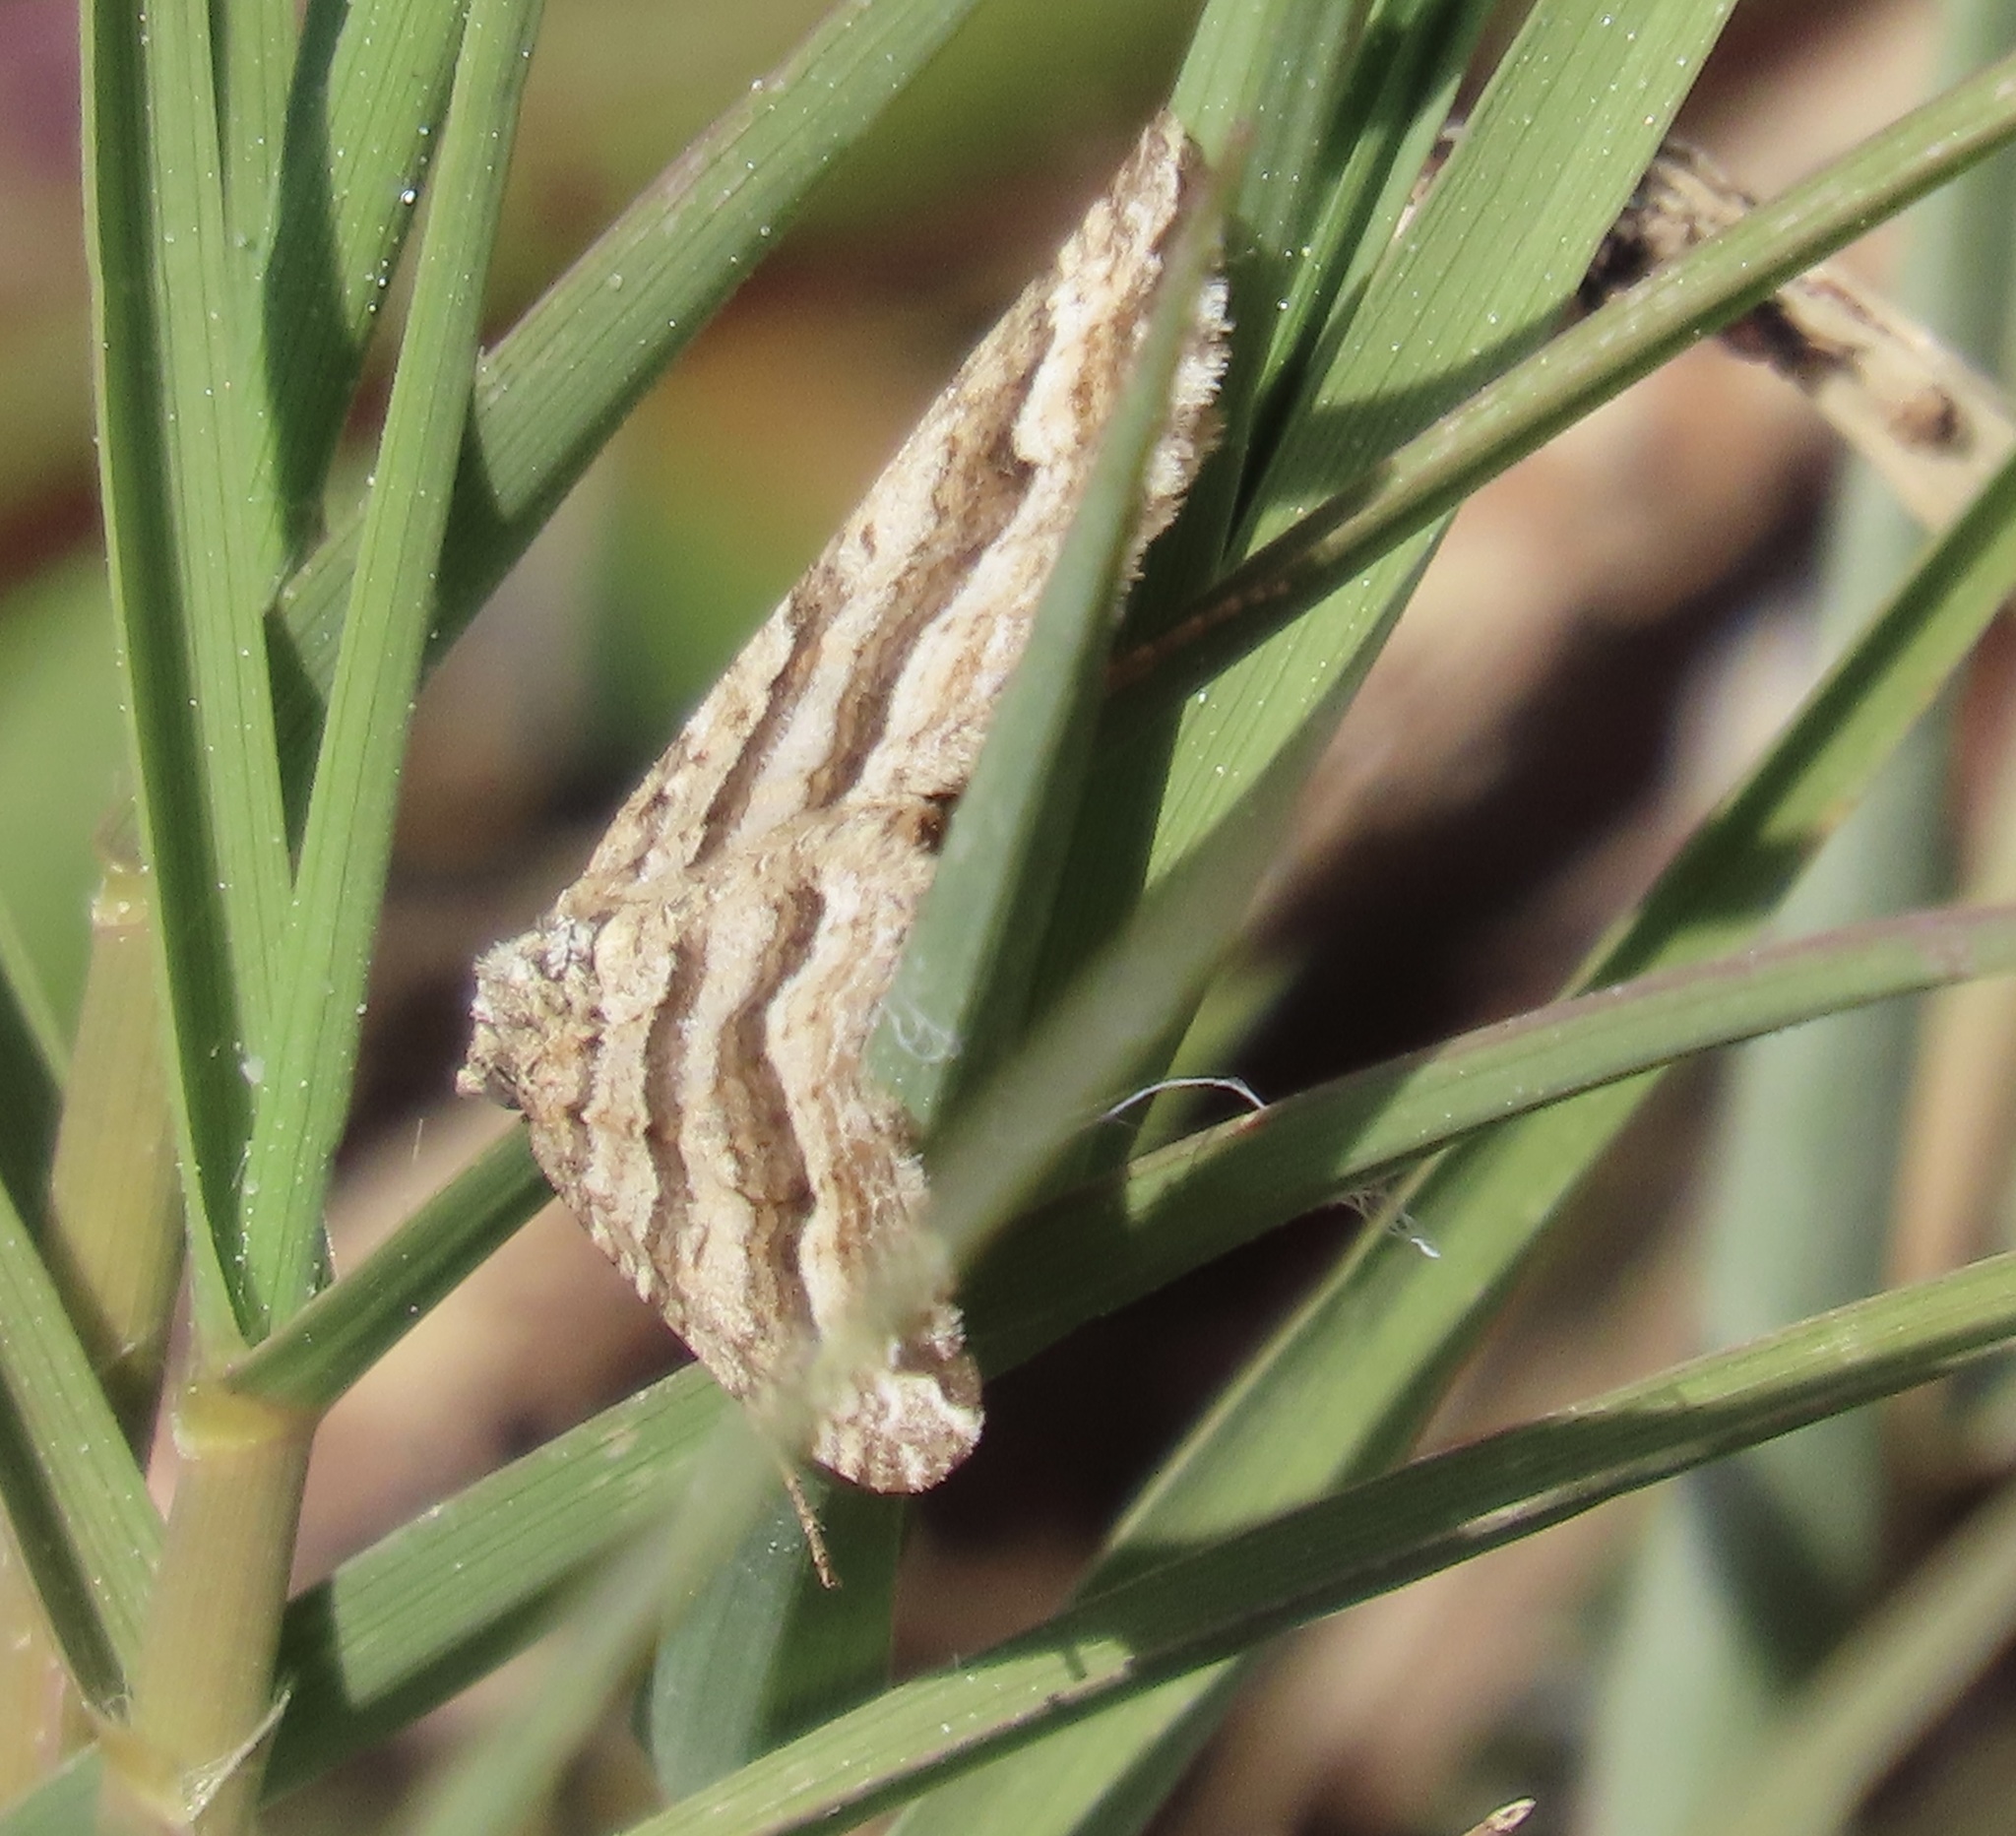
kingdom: Animalia
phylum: Arthropoda
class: Insecta
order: Lepidoptera
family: Geometridae
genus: Perizoma
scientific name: Perizoma epictata
